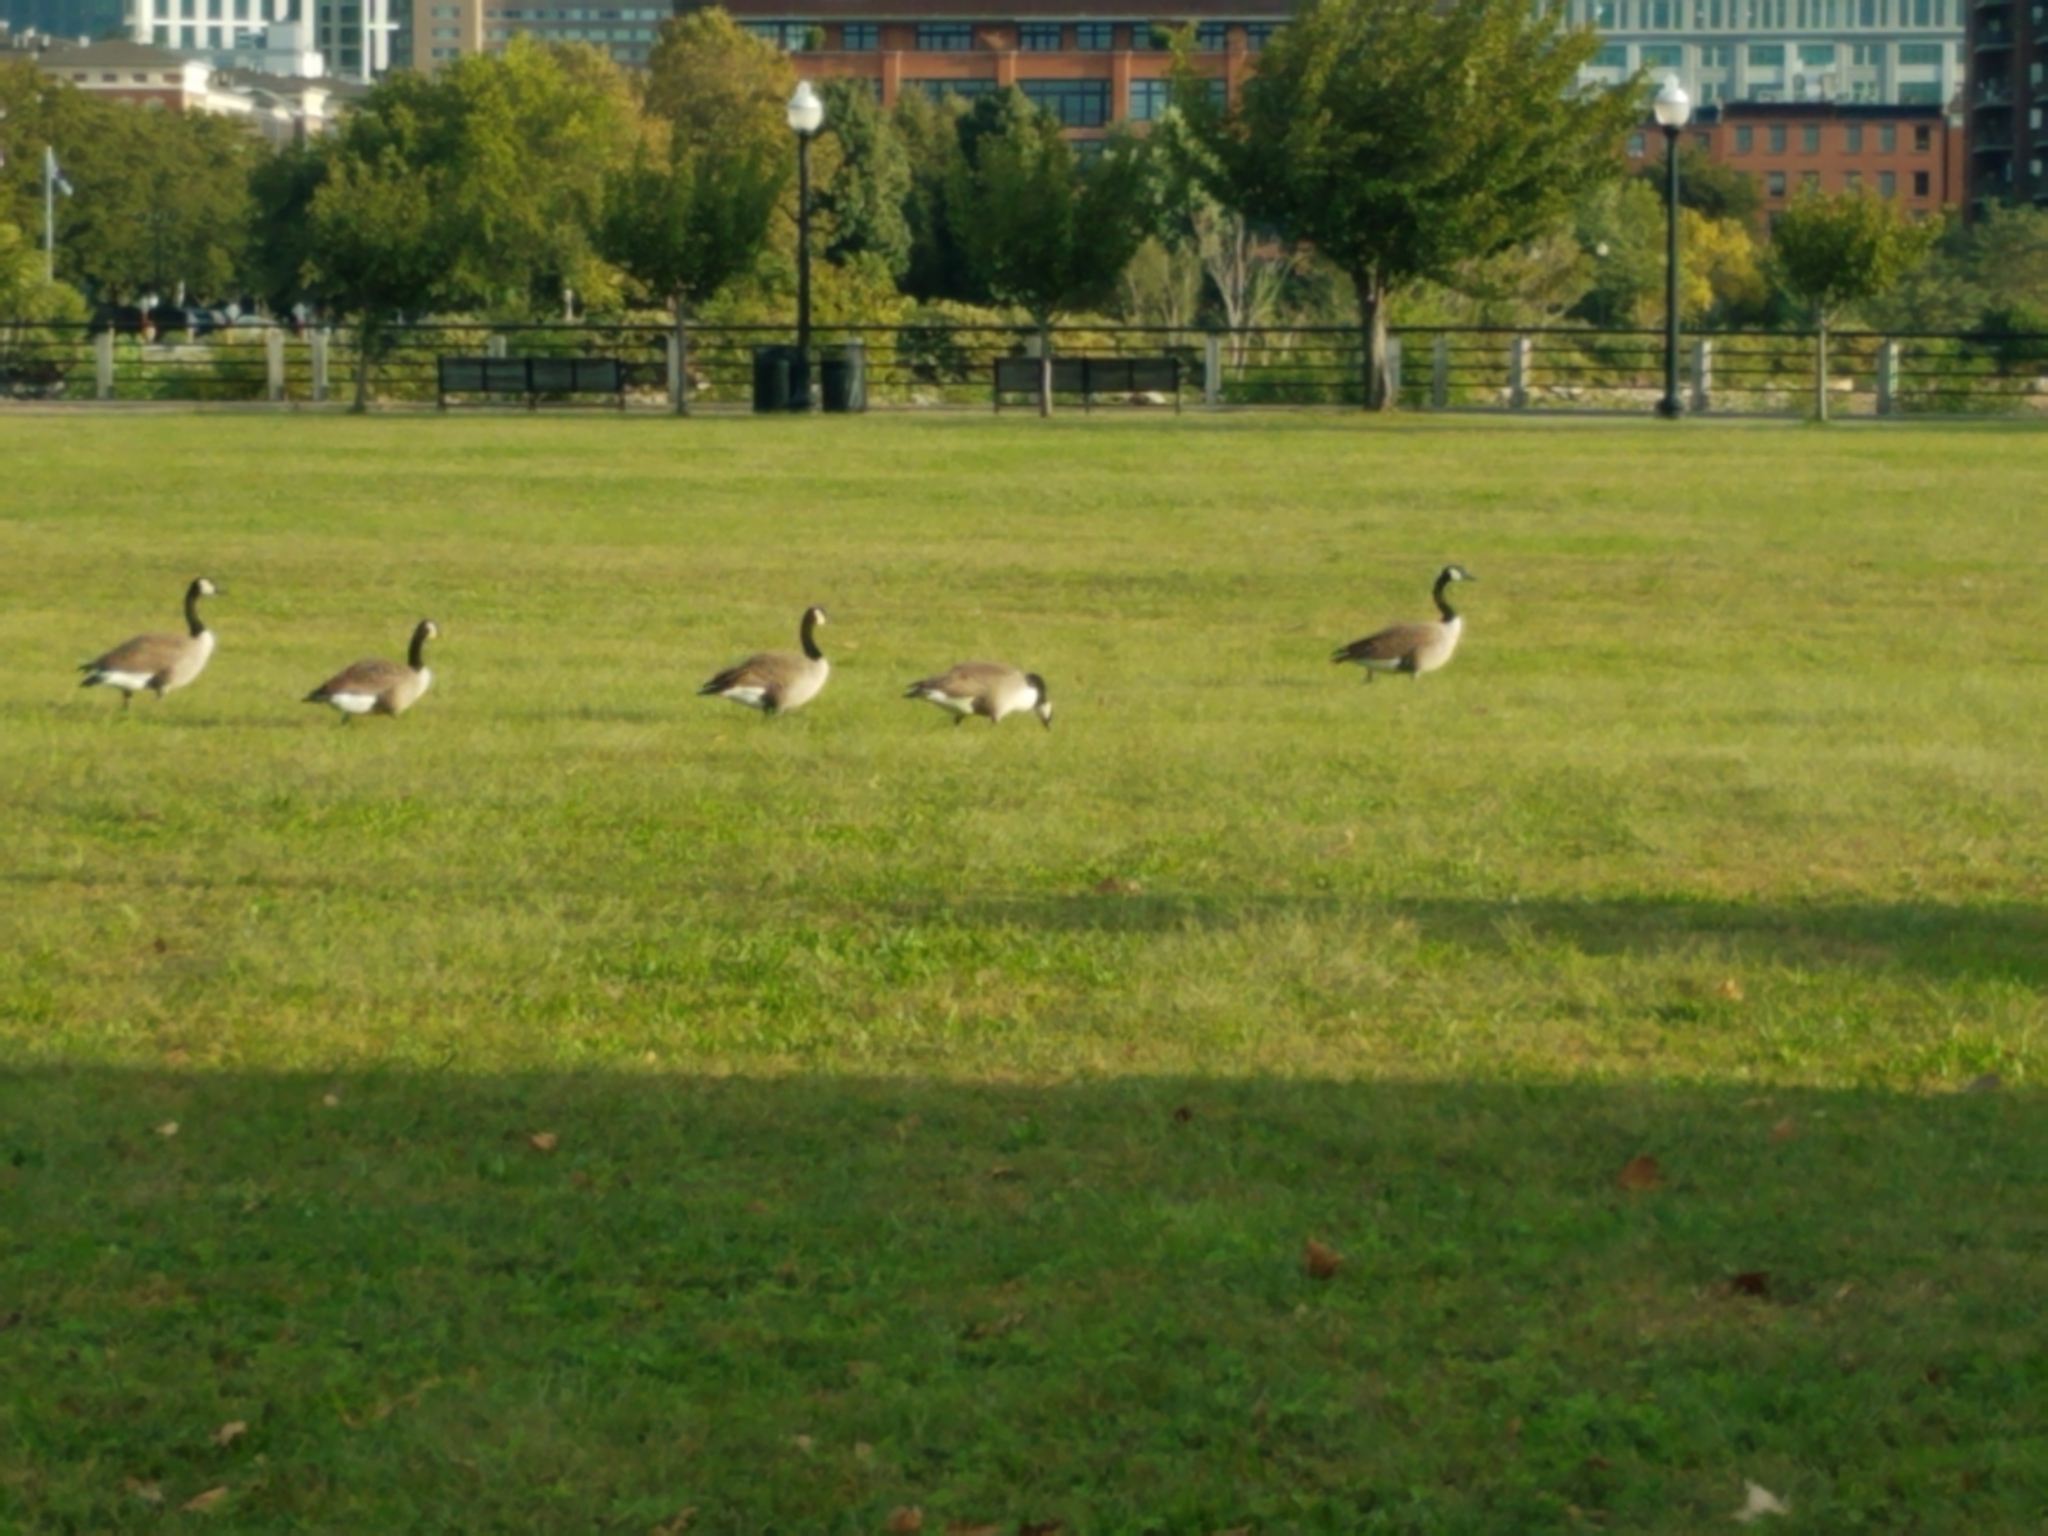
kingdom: Animalia
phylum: Chordata
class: Aves
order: Anseriformes
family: Anatidae
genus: Branta
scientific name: Branta canadensis
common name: Canada goose
